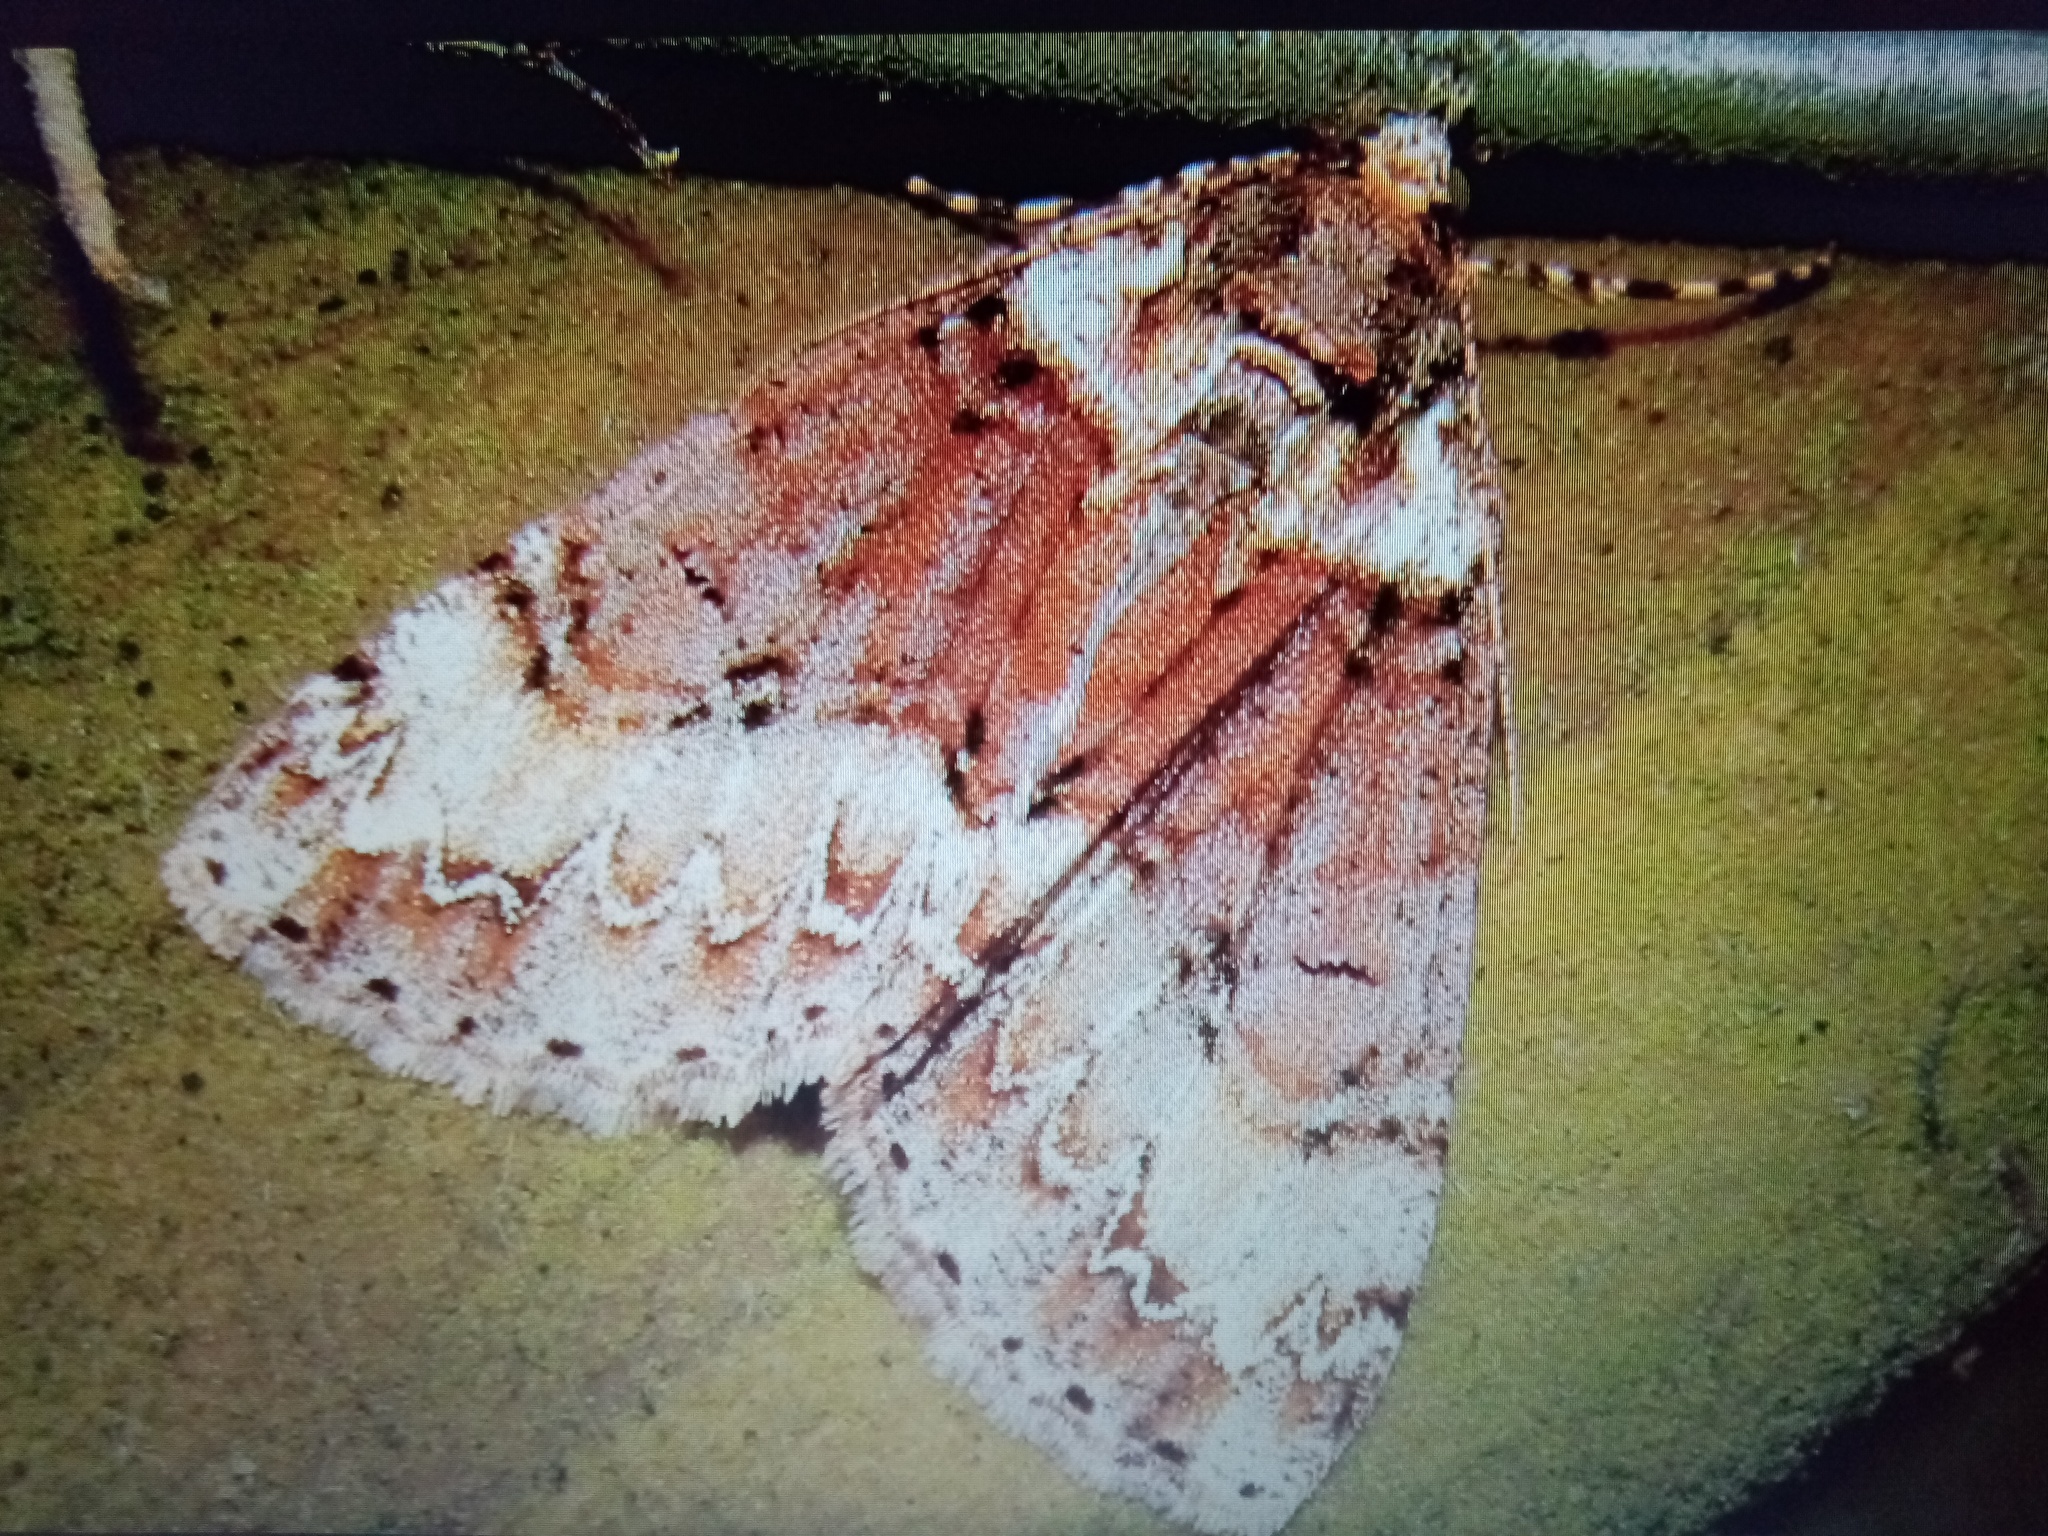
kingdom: Animalia
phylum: Arthropoda
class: Insecta
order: Lepidoptera
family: Geometridae
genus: Pseudocoremia
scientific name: Pseudocoremia suavis
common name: Common forest looper
